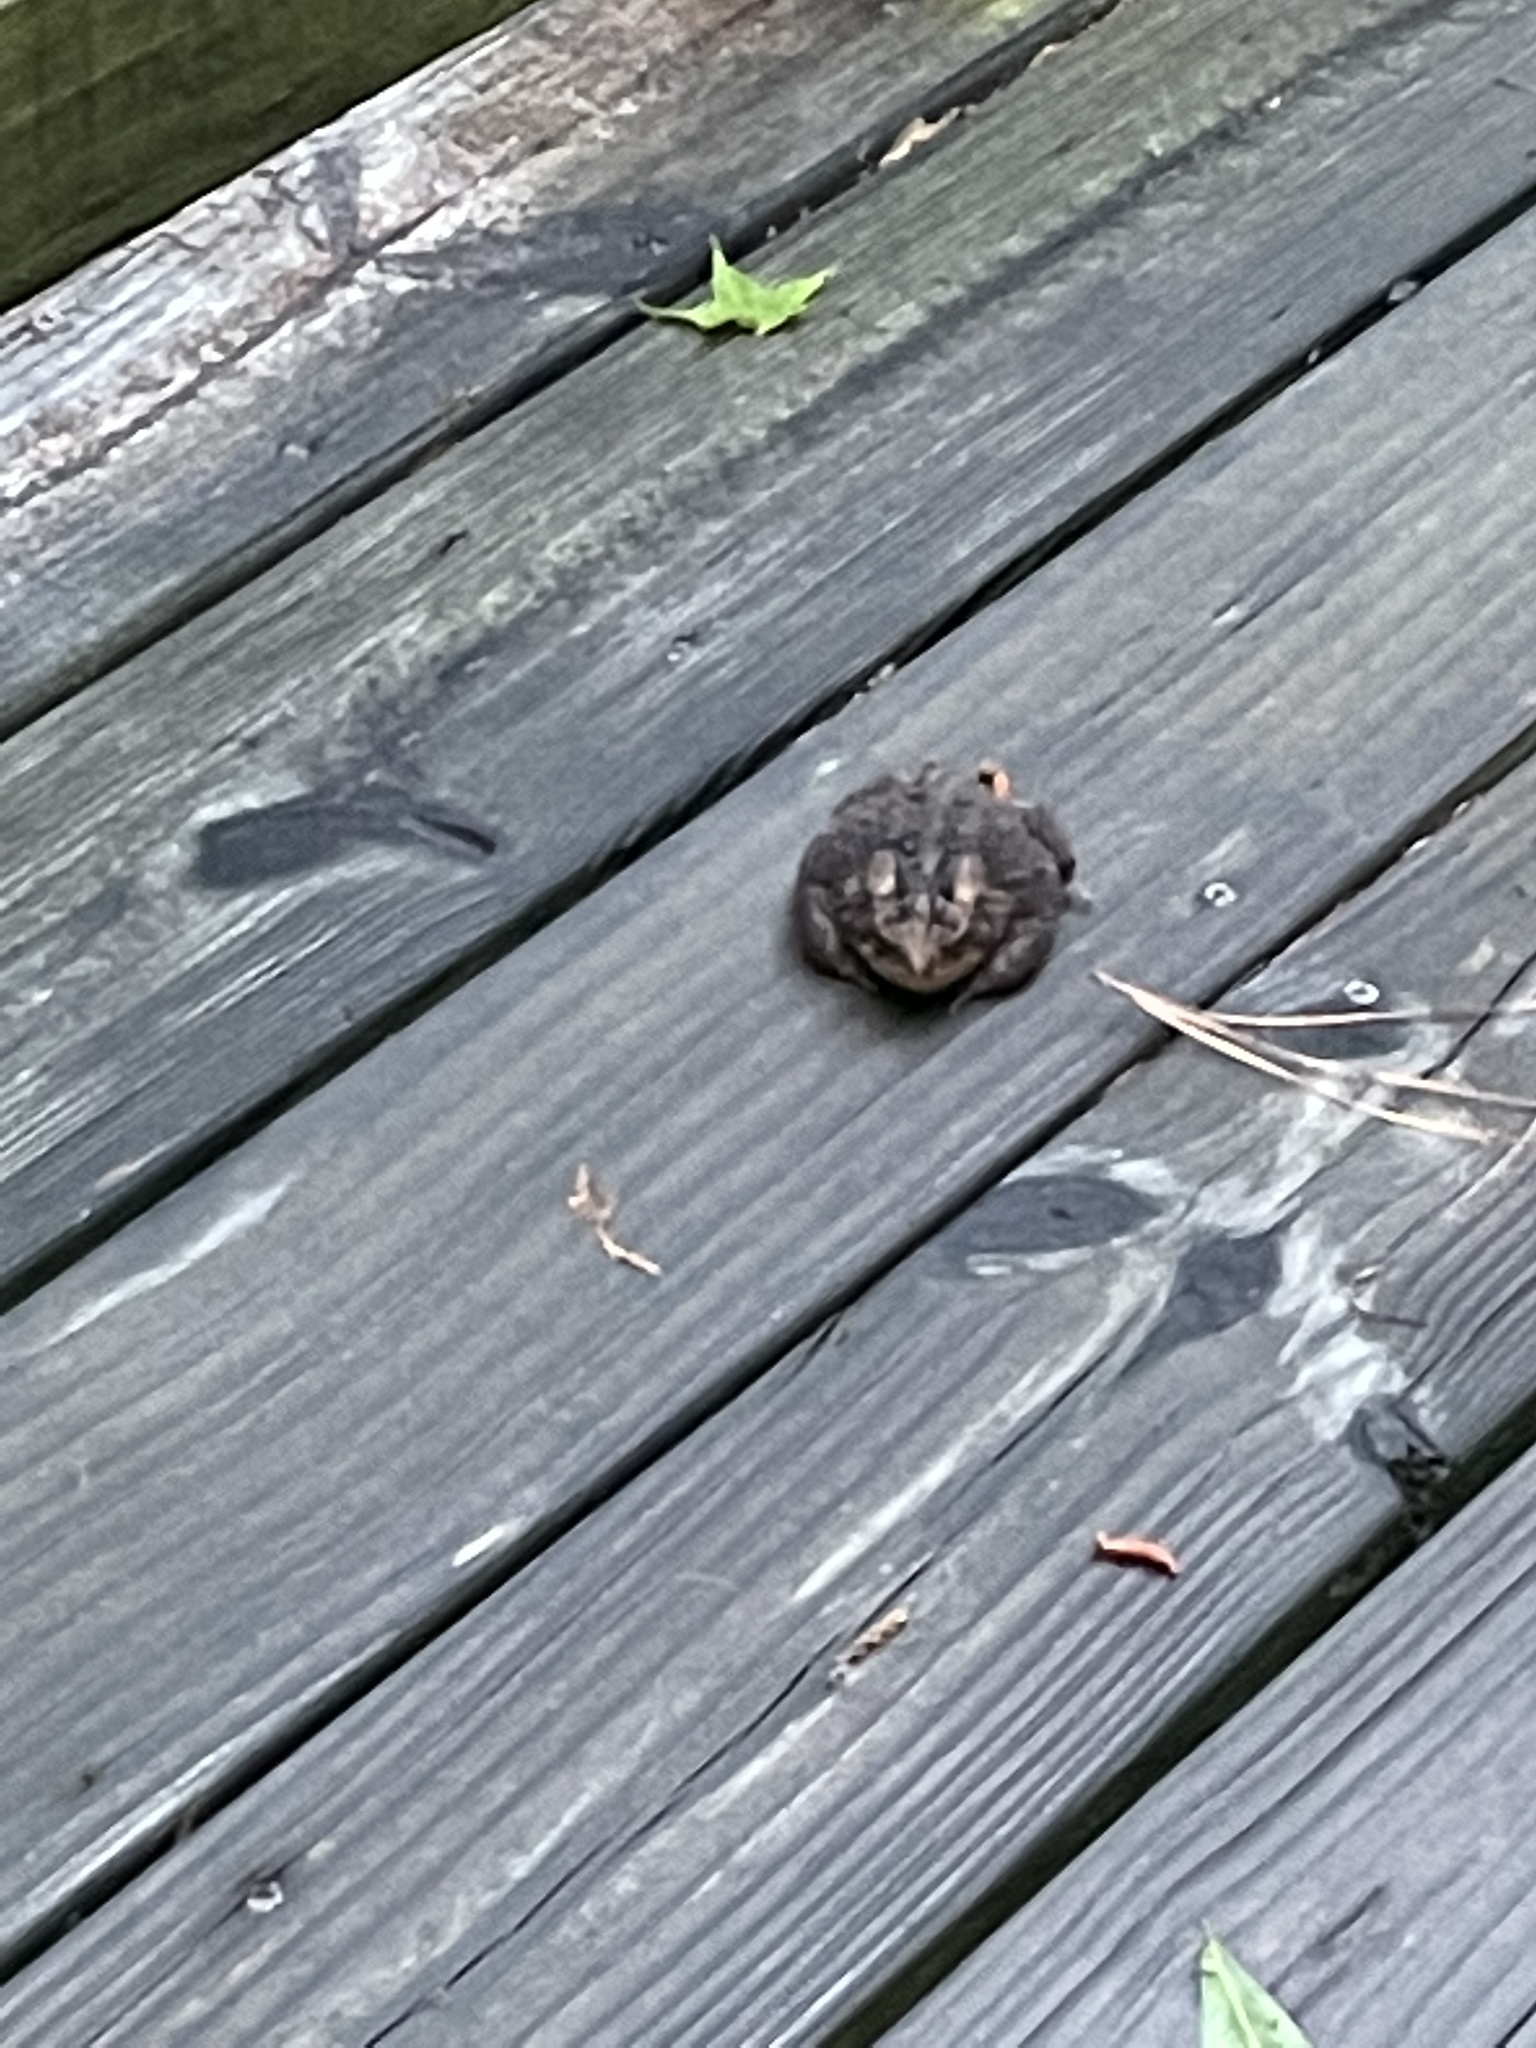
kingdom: Animalia
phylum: Chordata
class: Amphibia
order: Anura
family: Bufonidae
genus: Anaxyrus
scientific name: Anaxyrus terrestris
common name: Southern toad
